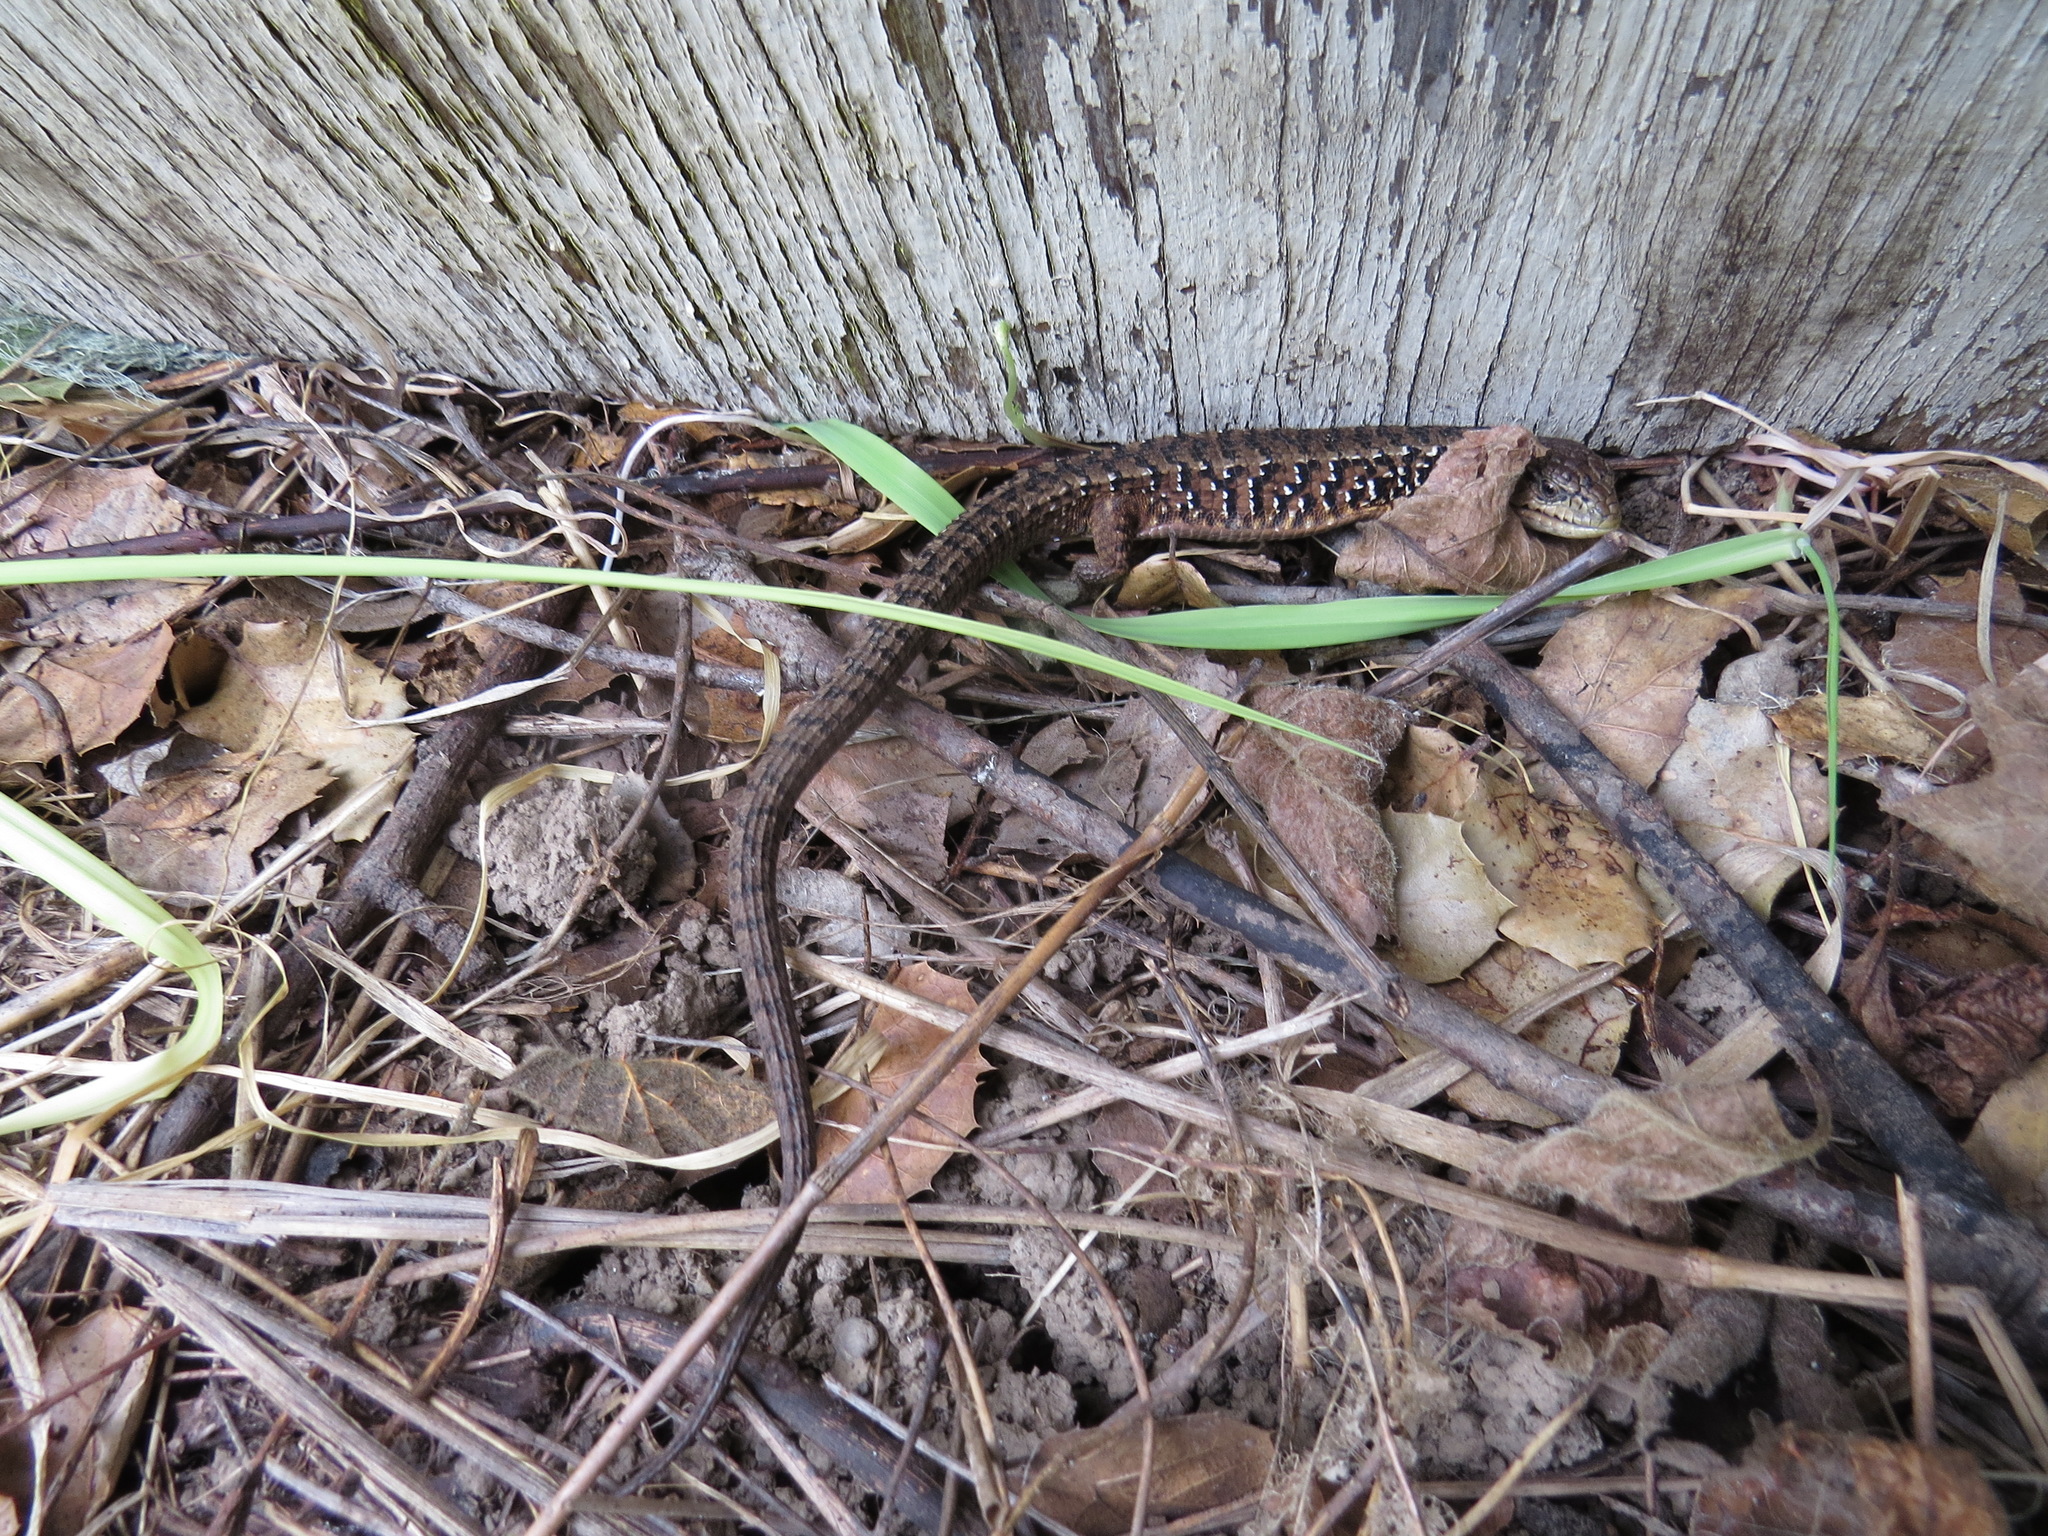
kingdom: Animalia
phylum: Chordata
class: Squamata
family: Anguidae
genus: Elgaria
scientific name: Elgaria coerulea
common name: Northern alligator lizard
